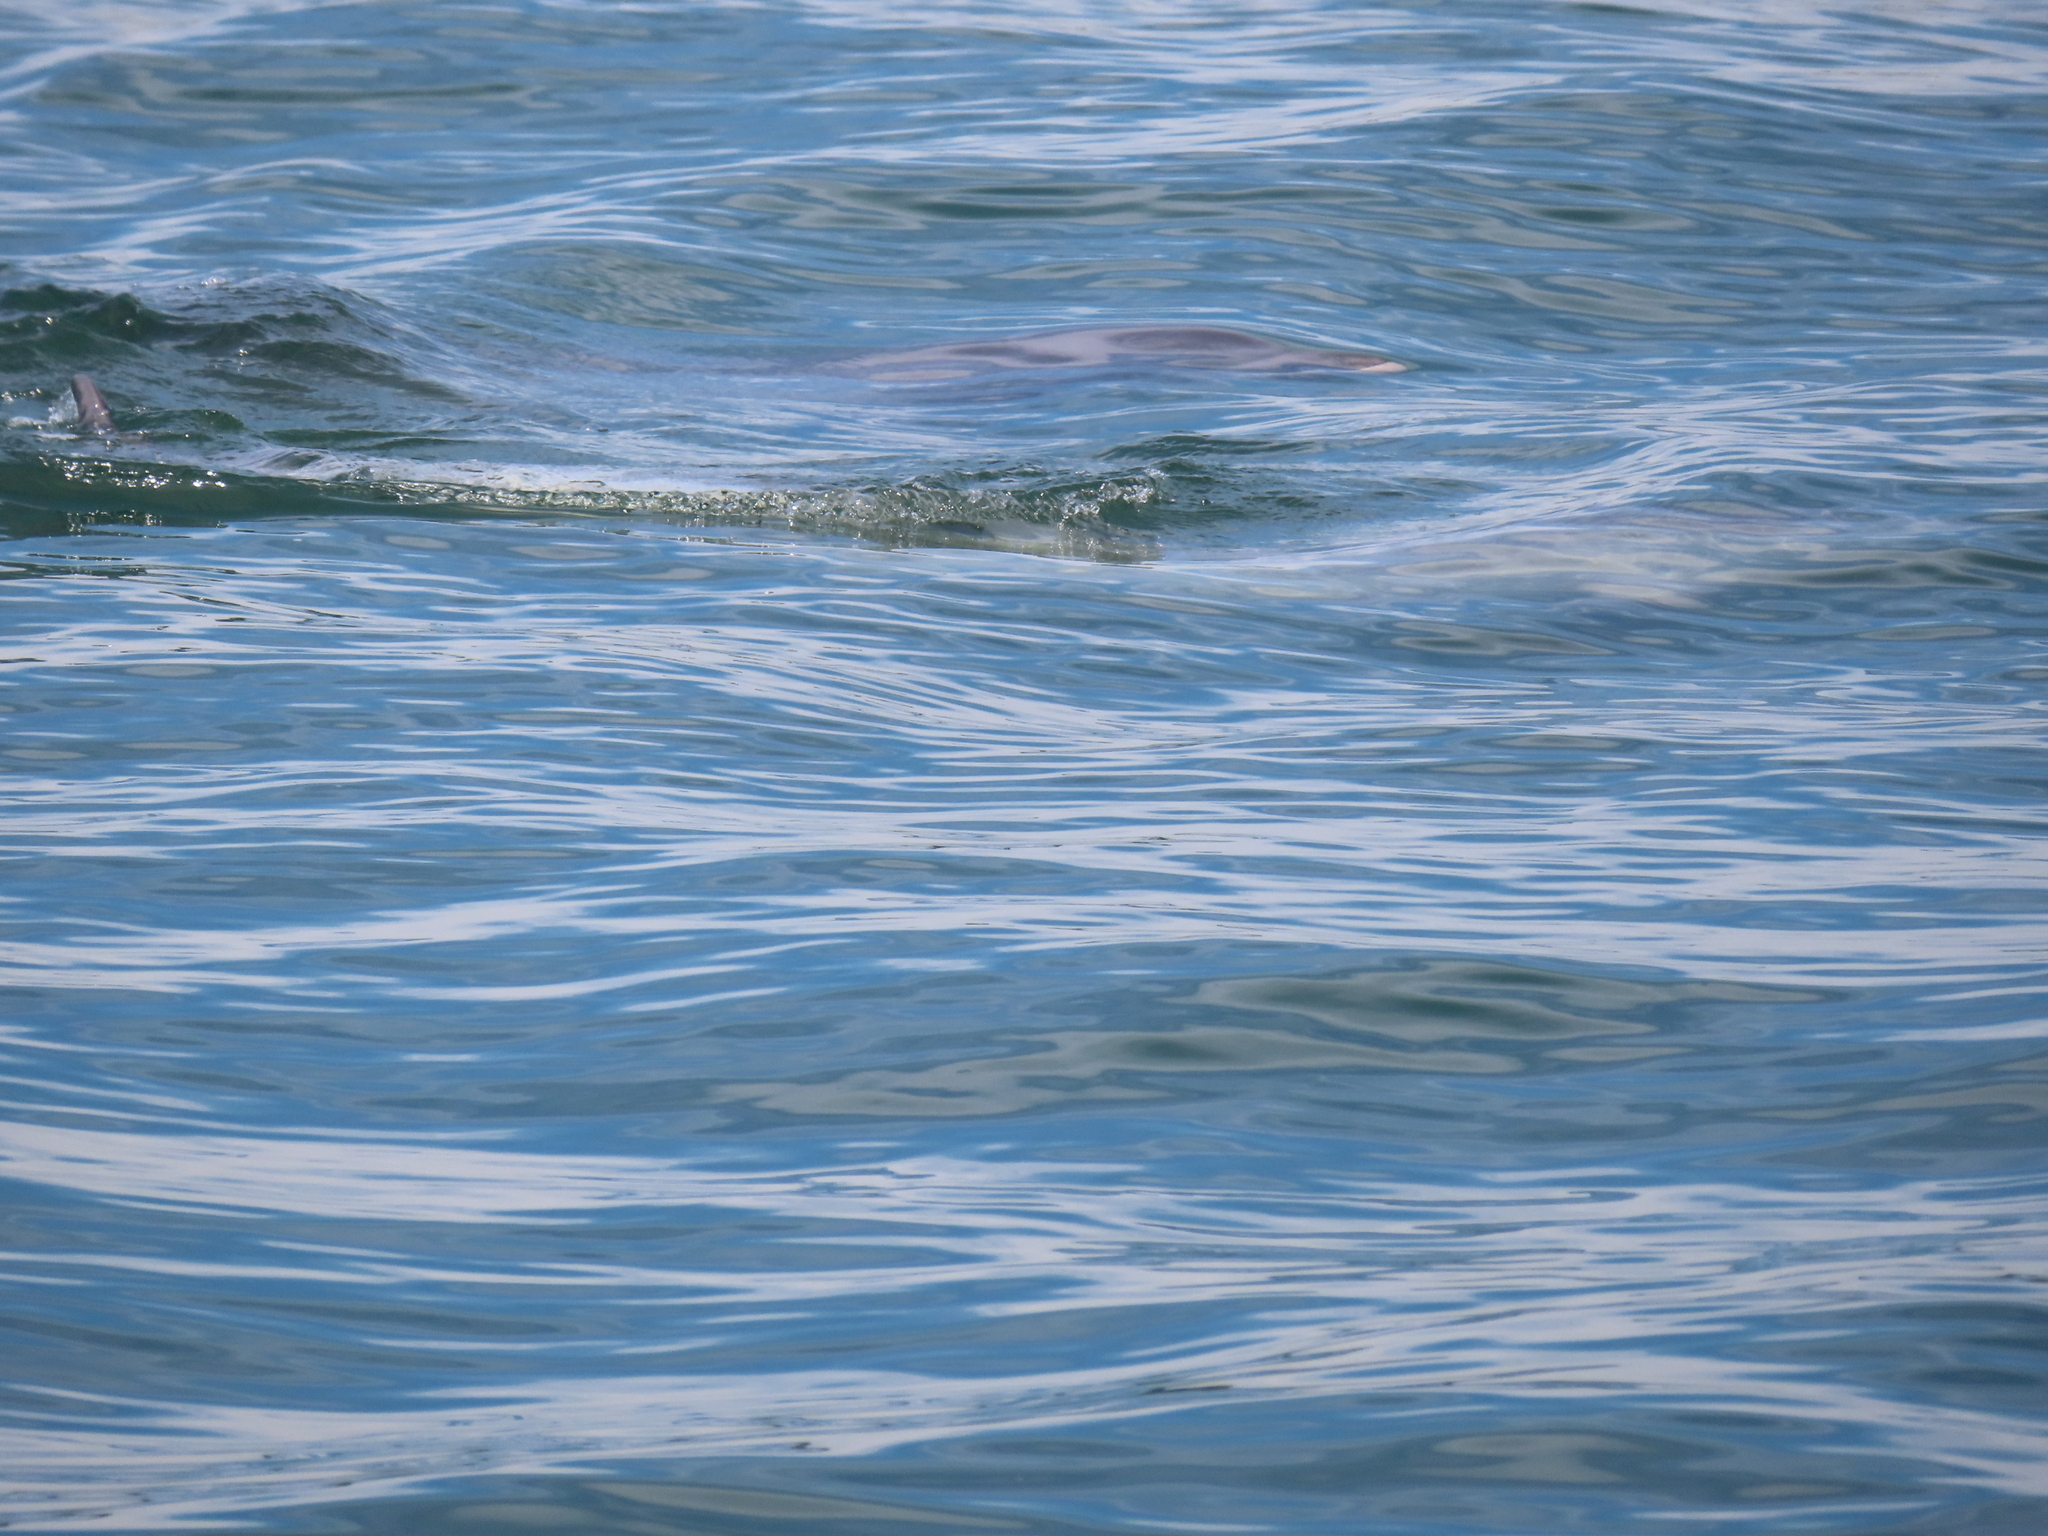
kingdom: Animalia
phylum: Chordata
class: Mammalia
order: Cetacea
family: Delphinidae
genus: Tursiops
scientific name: Tursiops truncatus
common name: Bottlenose dolphin
